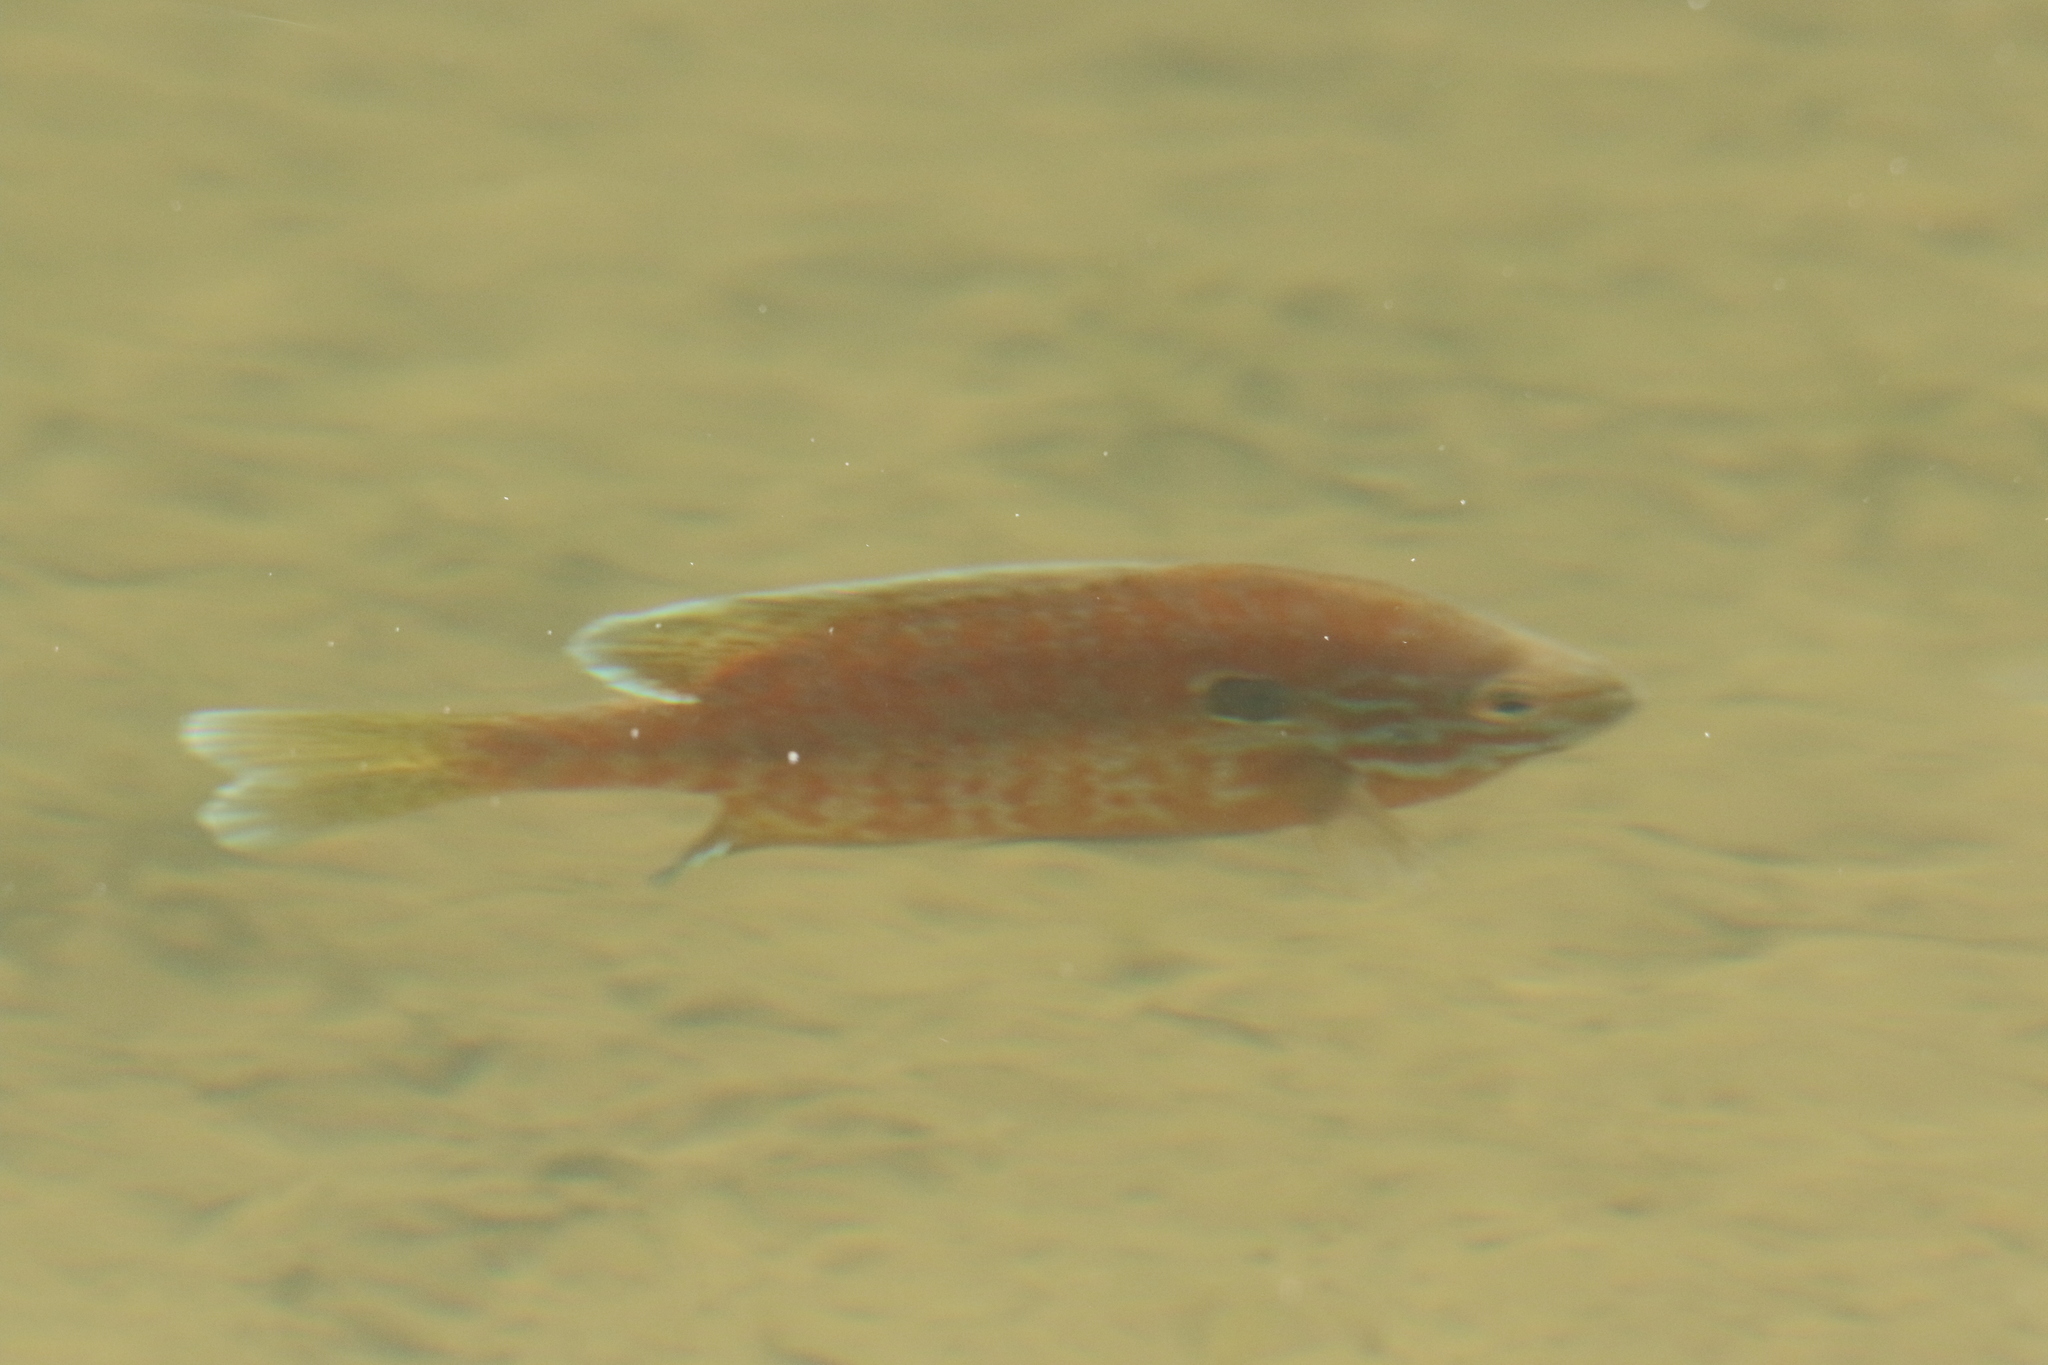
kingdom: Animalia
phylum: Chordata
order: Perciformes
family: Centrarchidae
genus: Lepomis
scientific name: Lepomis
